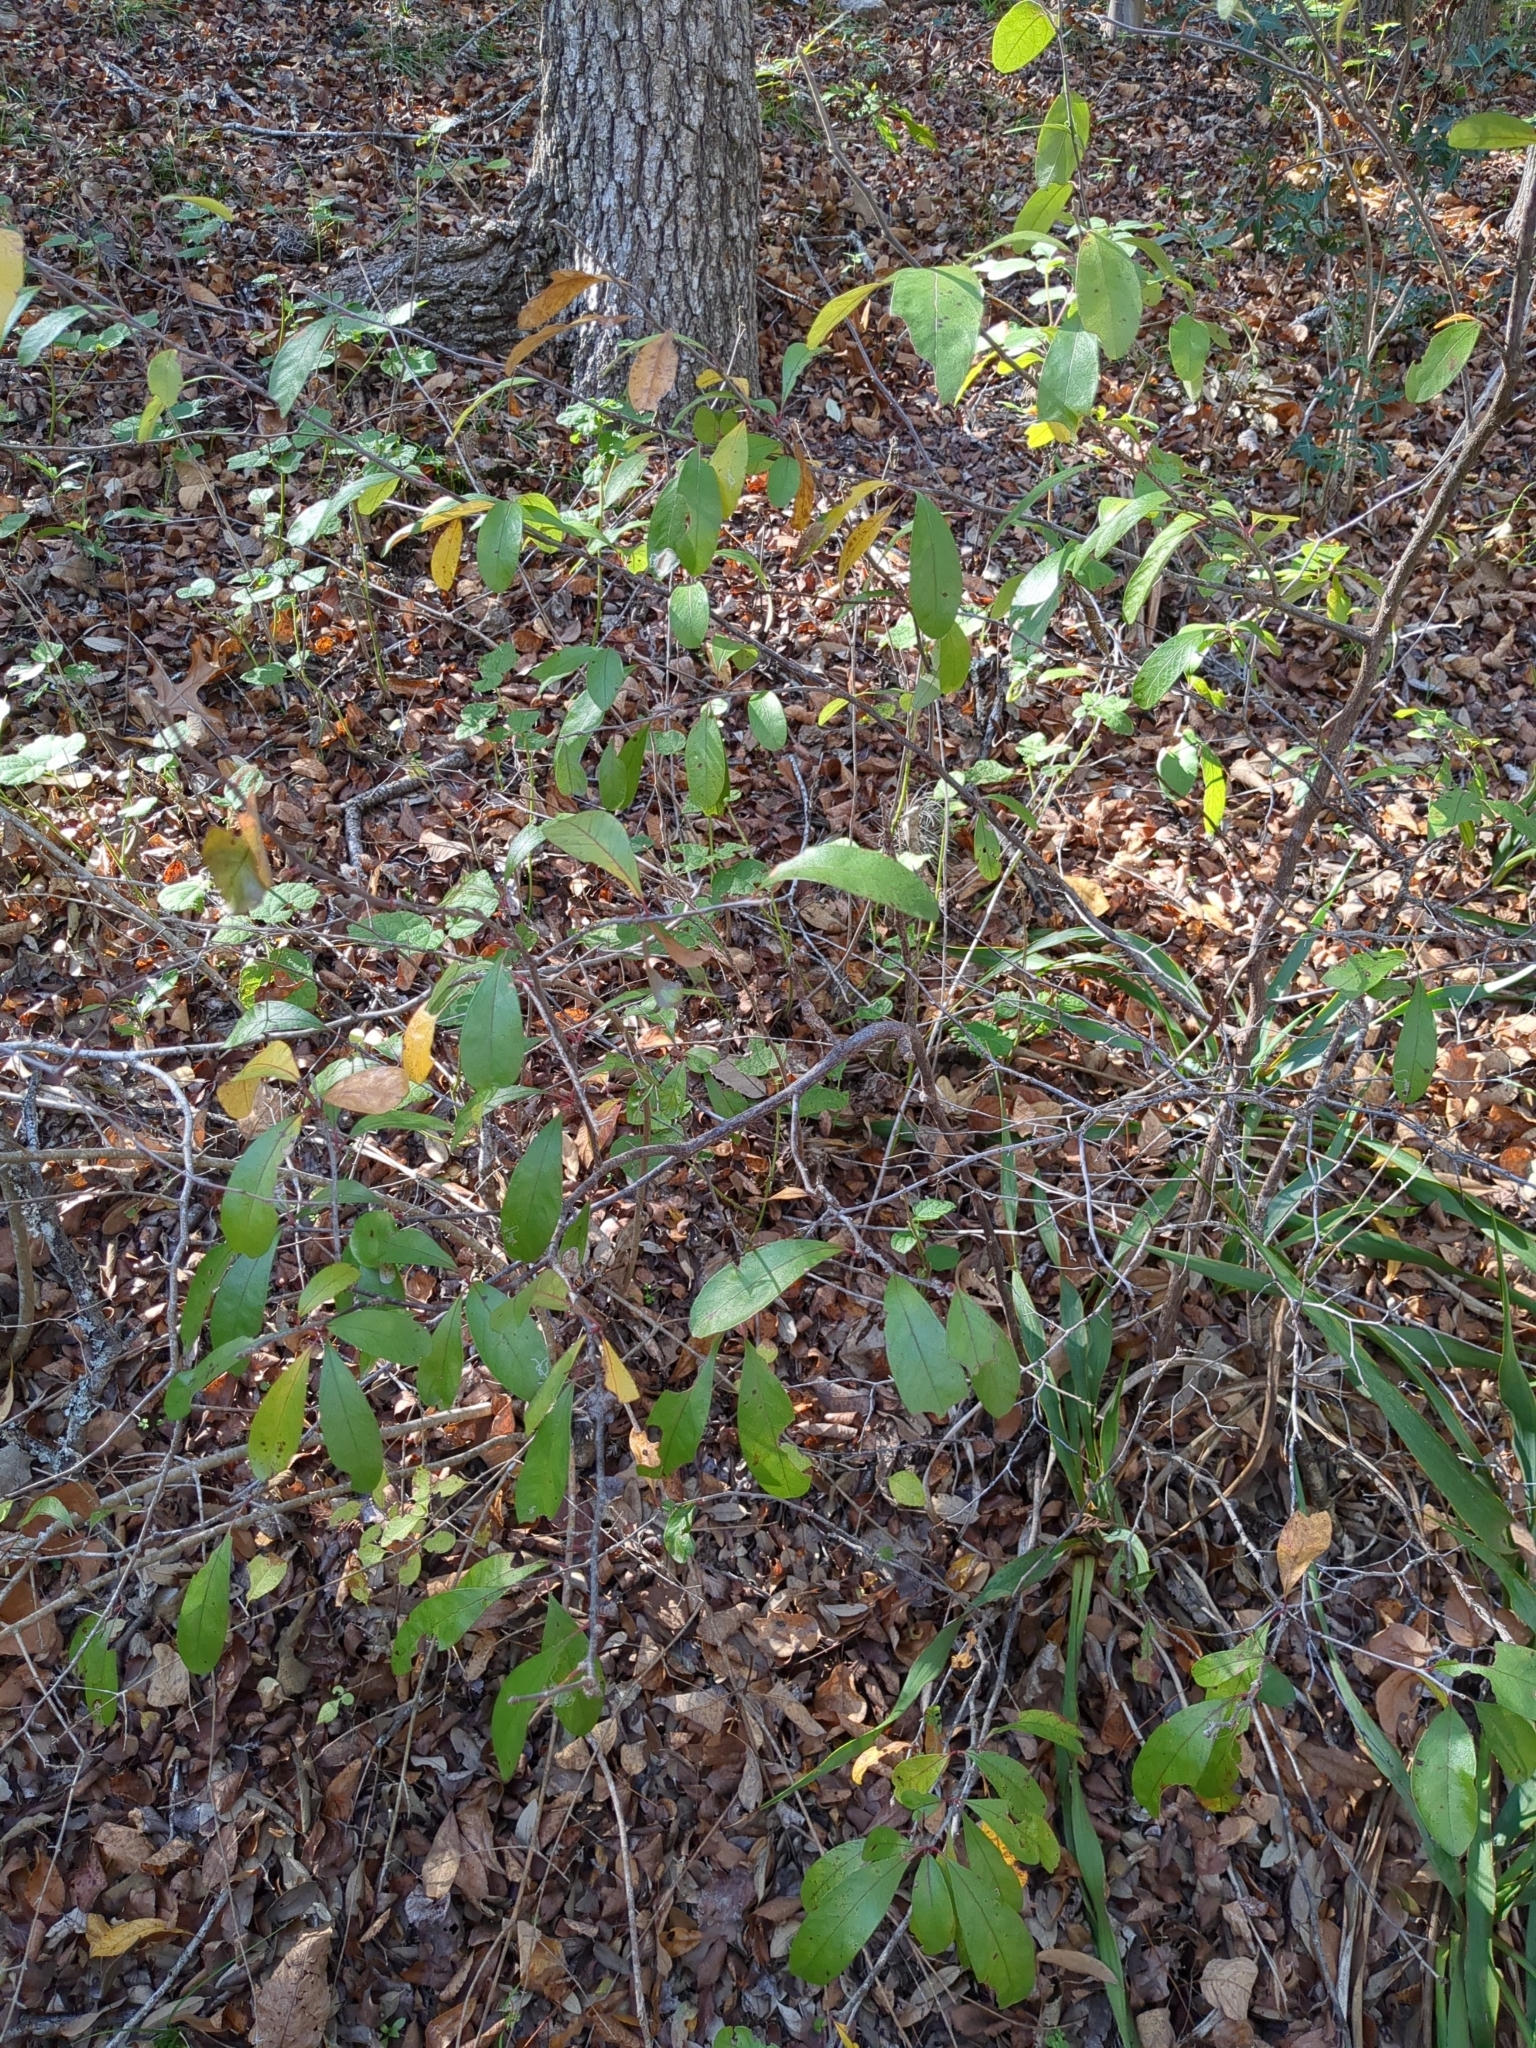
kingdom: Plantae
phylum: Tracheophyta
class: Magnoliopsida
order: Ericales
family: Sapotaceae
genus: Sideroxylon
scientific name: Sideroxylon lanuginosum
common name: Chittamwood
